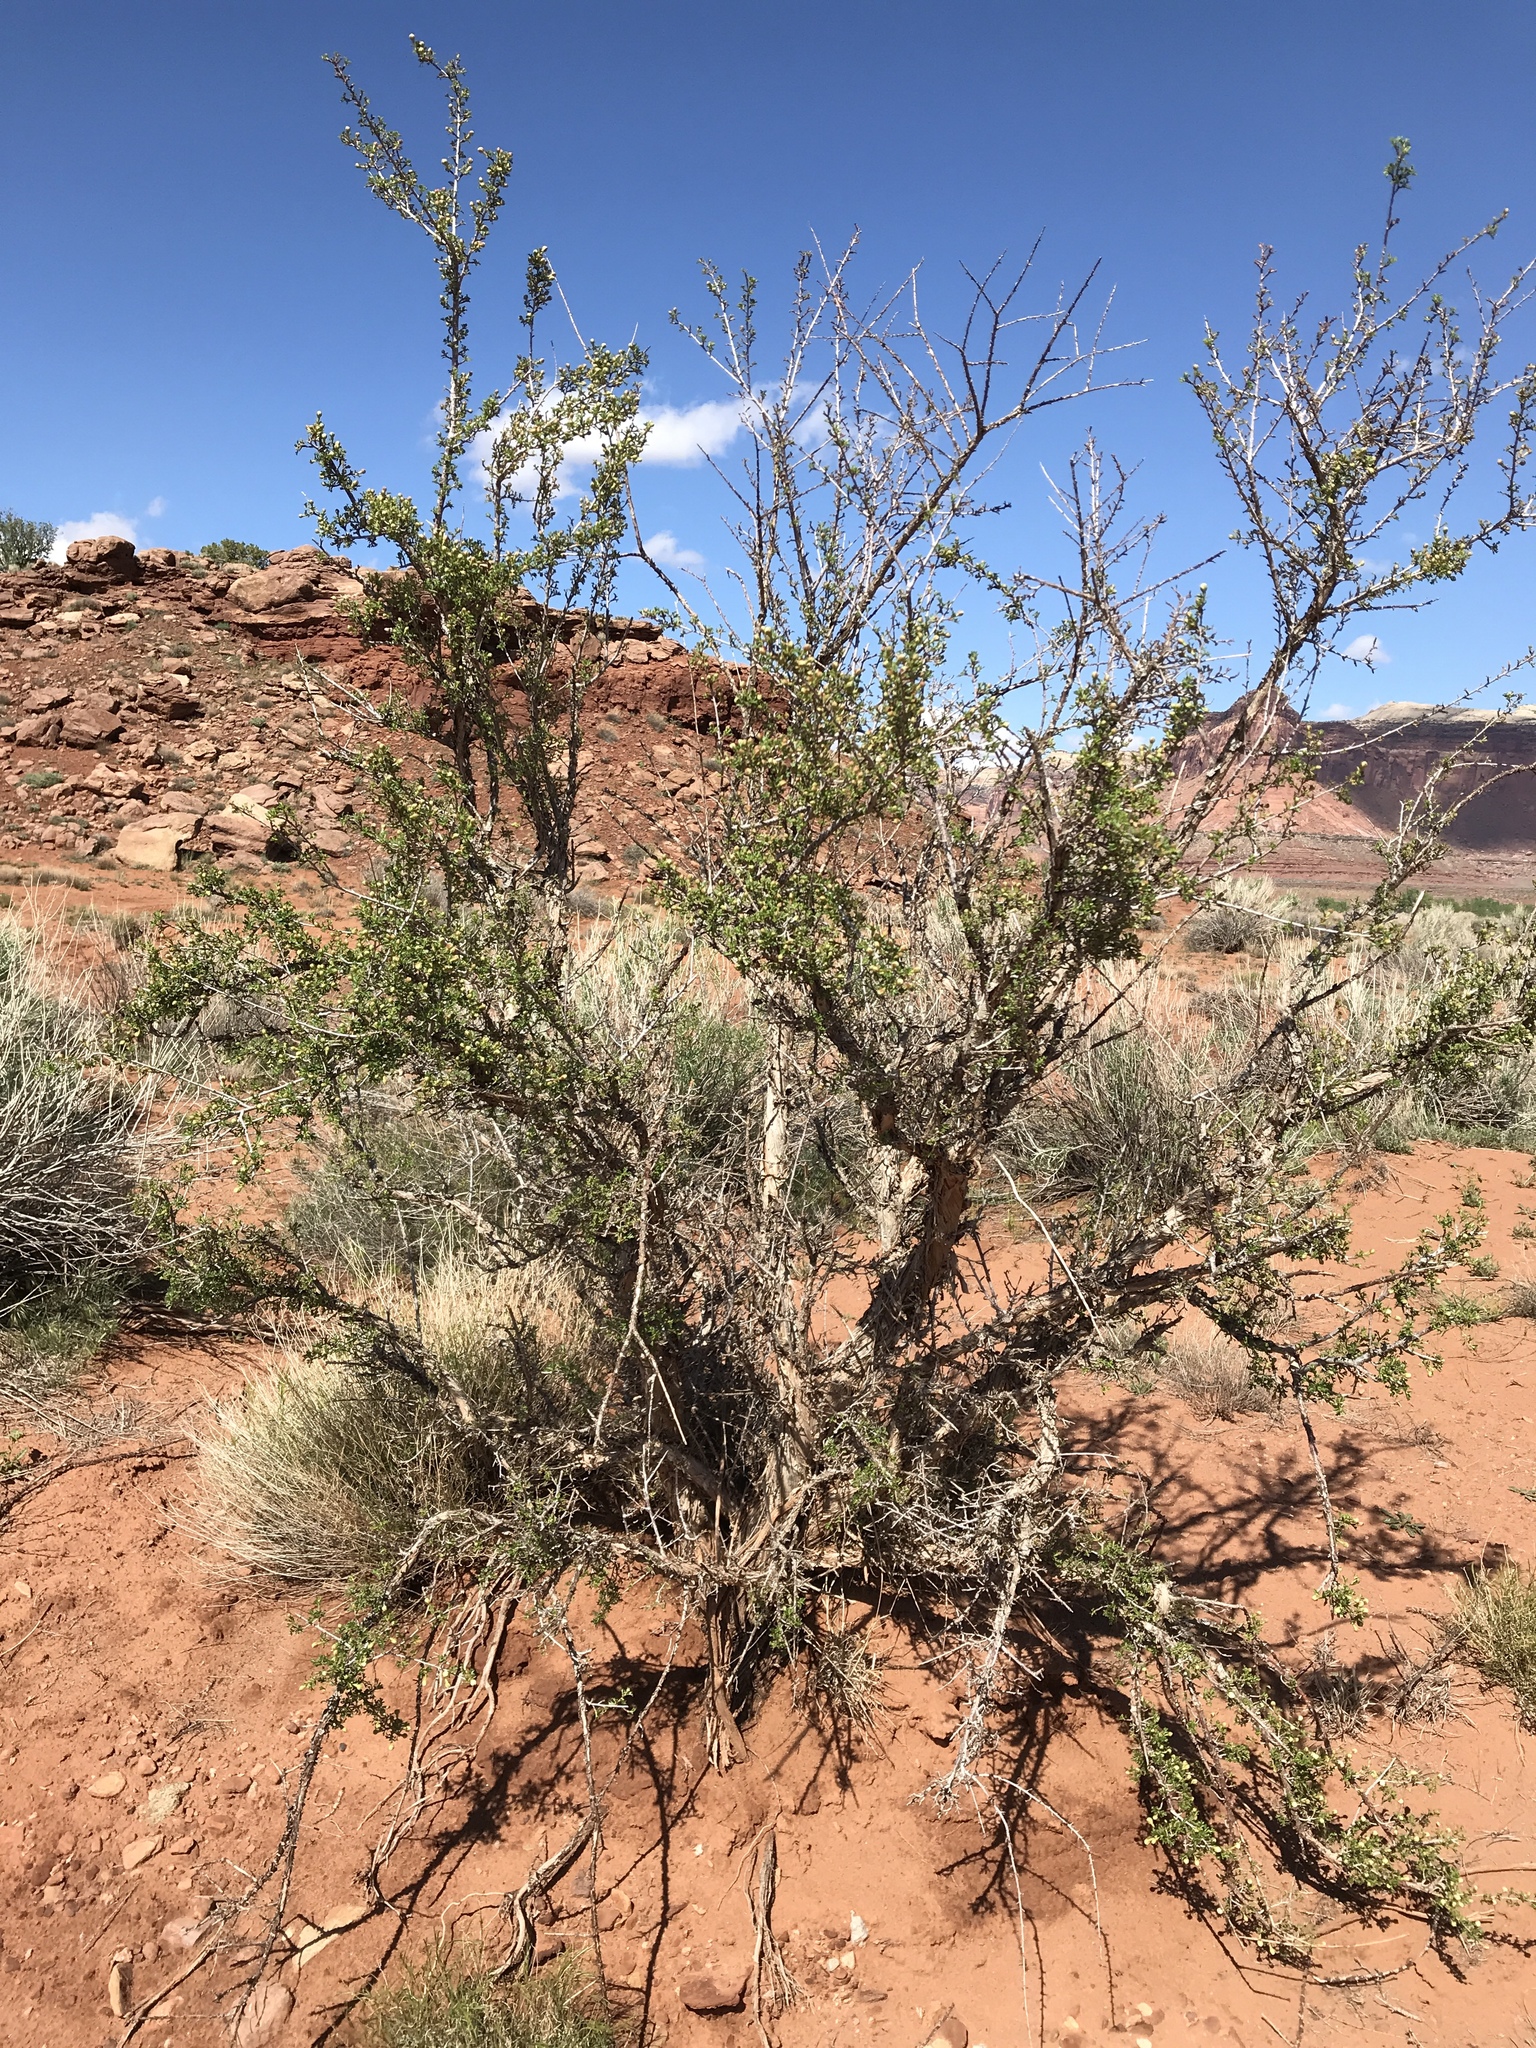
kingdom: Plantae
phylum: Tracheophyta
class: Magnoliopsida
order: Rosales
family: Rosaceae
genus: Purshia
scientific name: Purshia stansburiana
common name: Stansbury's cliffrose
